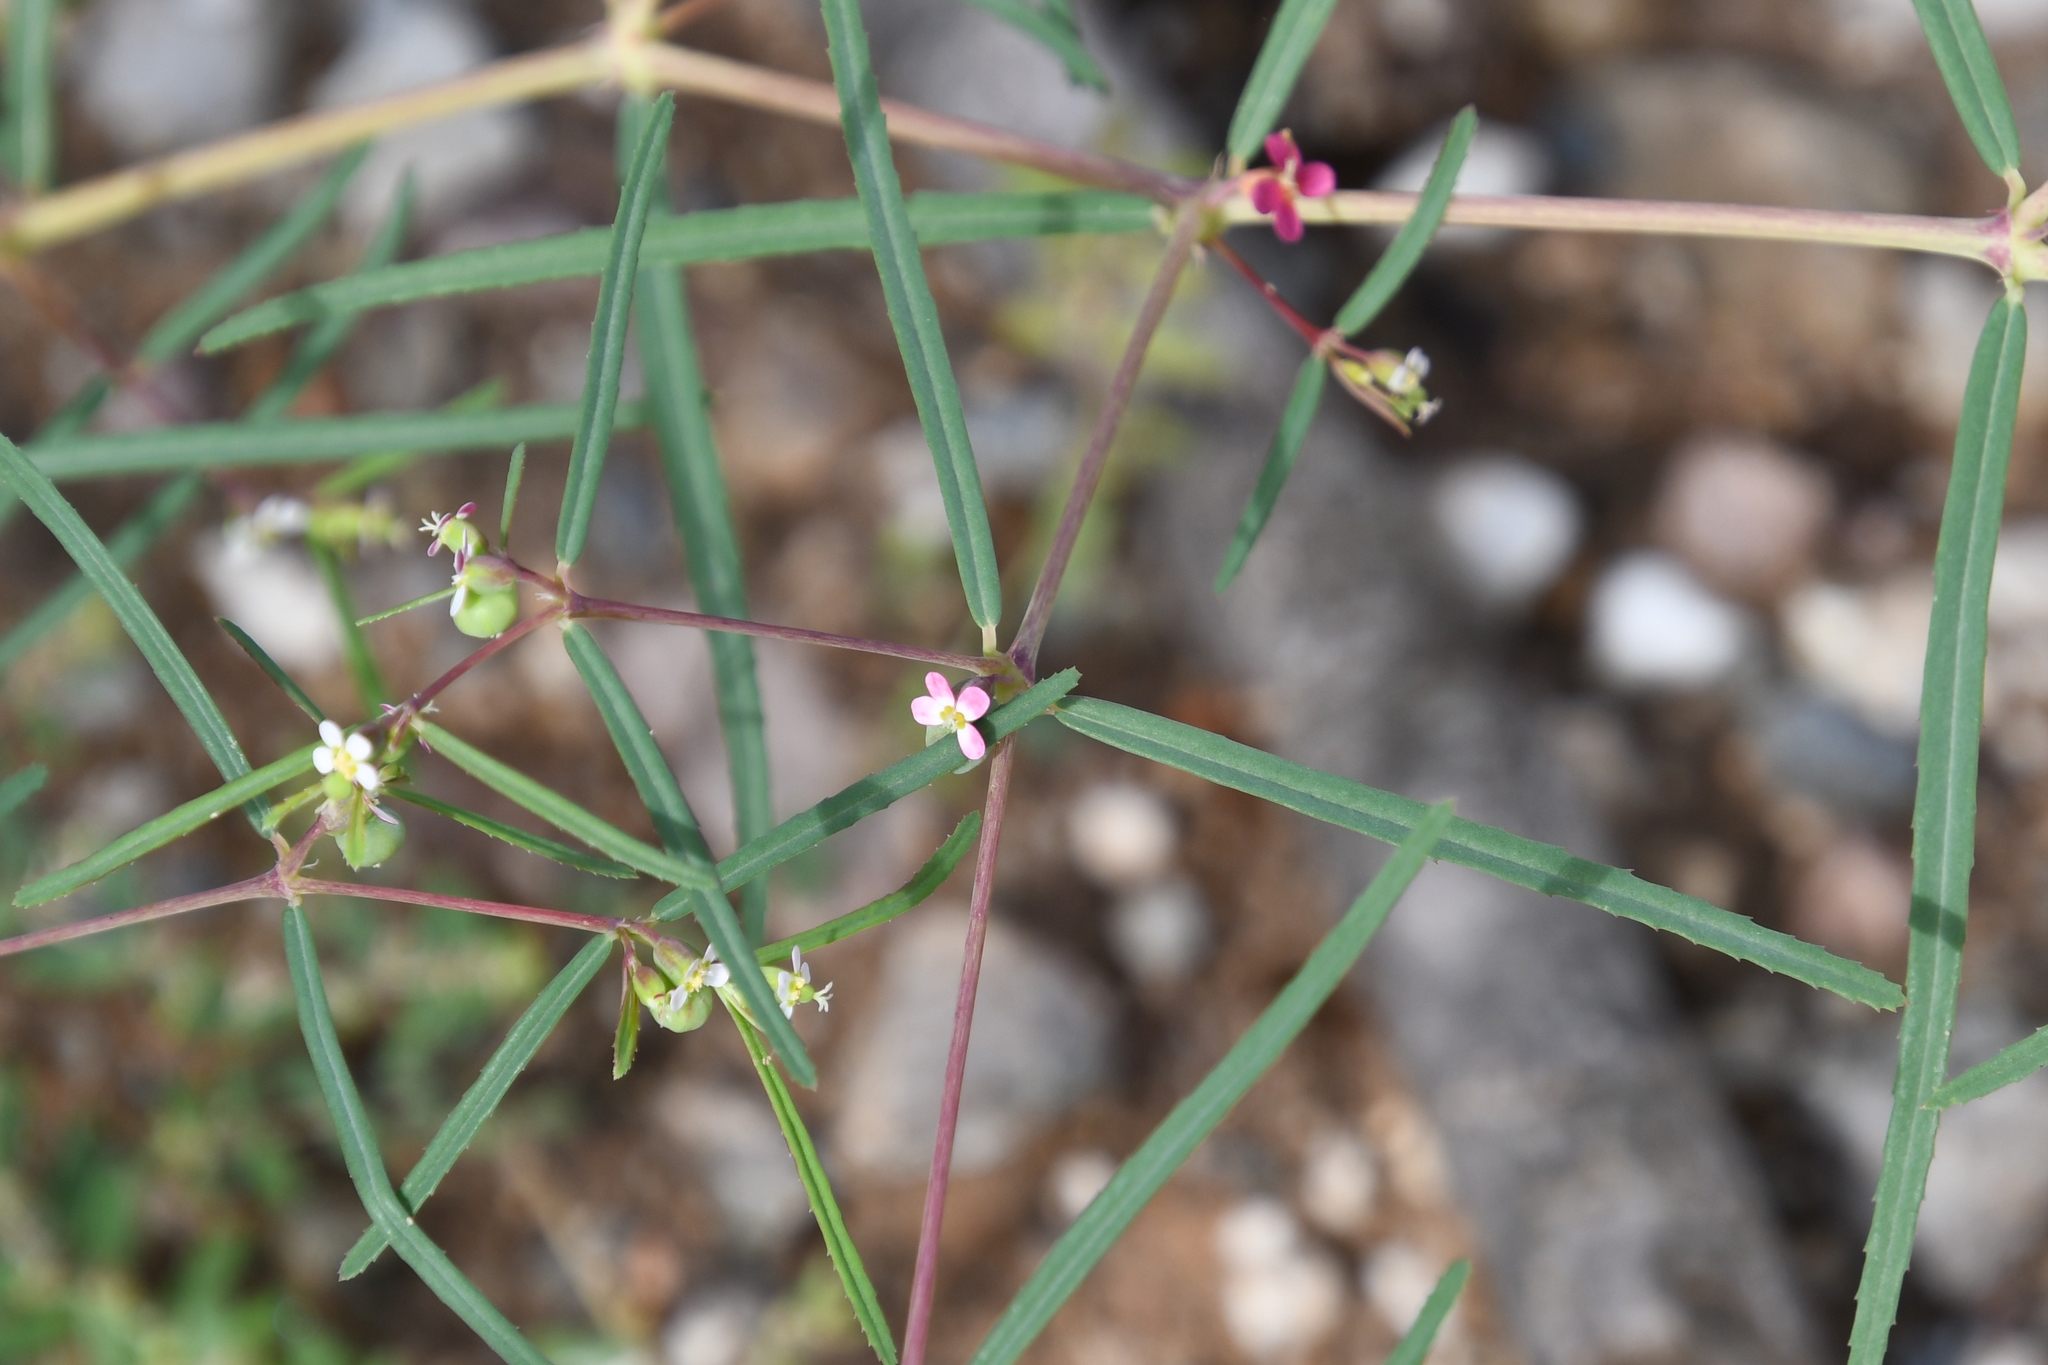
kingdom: Plantae
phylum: Tracheophyta
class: Magnoliopsida
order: Malpighiales
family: Euphorbiaceae
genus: Euphorbia
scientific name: Euphorbia florida
